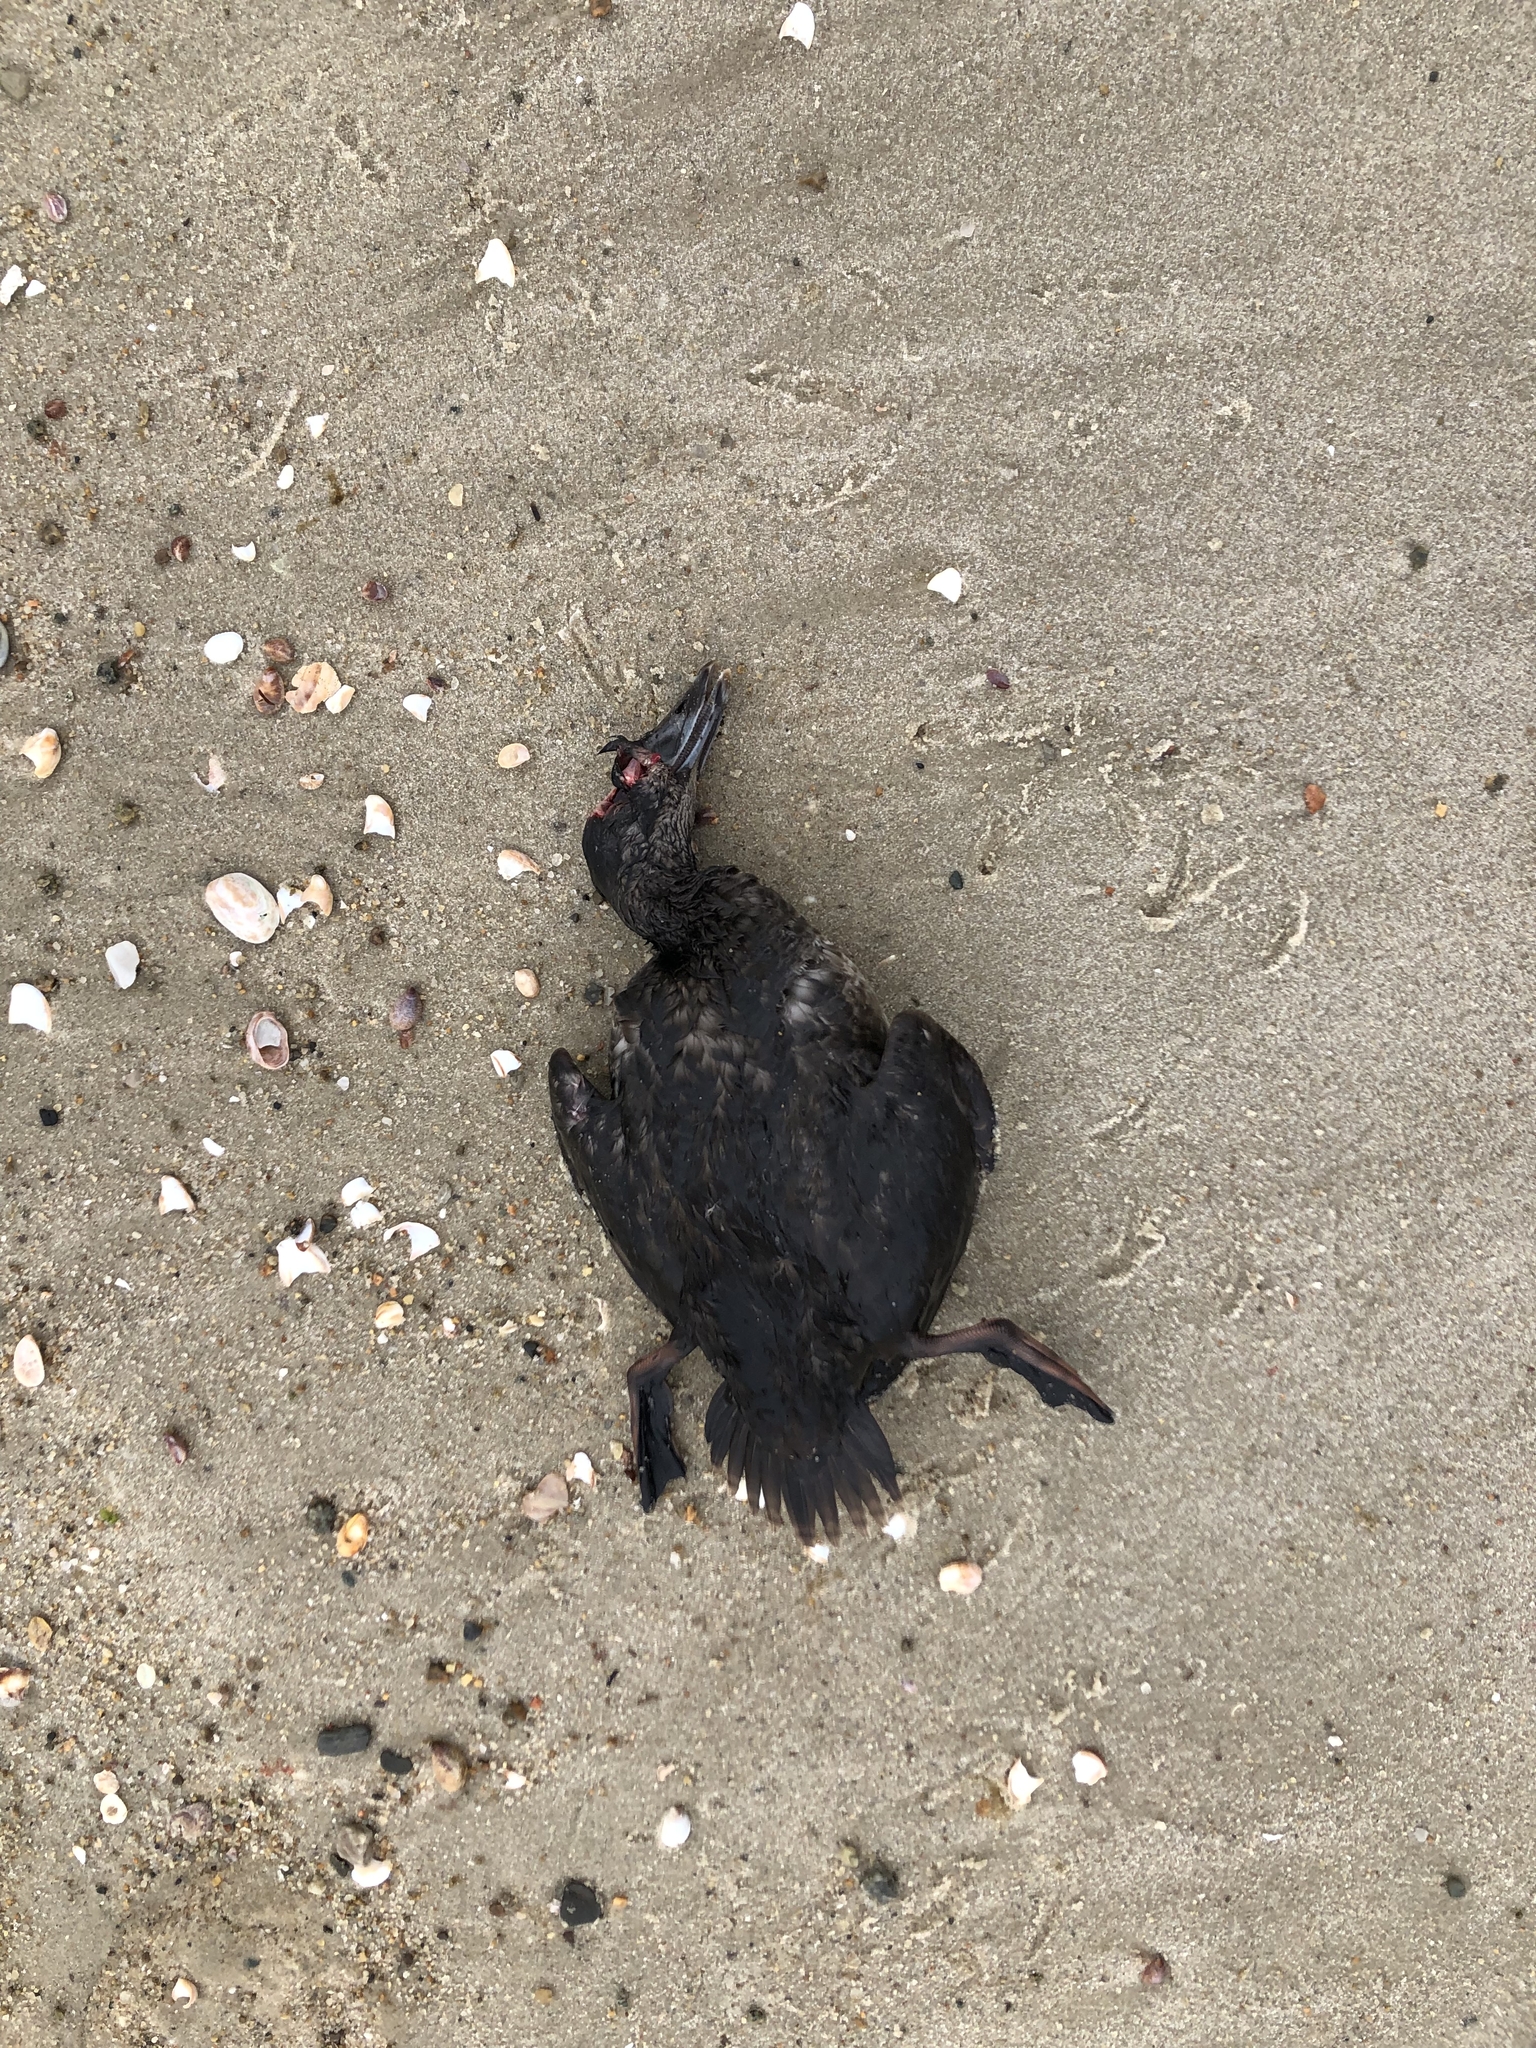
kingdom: Animalia
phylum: Chordata
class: Aves
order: Anseriformes
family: Anatidae
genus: Melanitta
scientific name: Melanitta perspicillata
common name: Surf scoter
